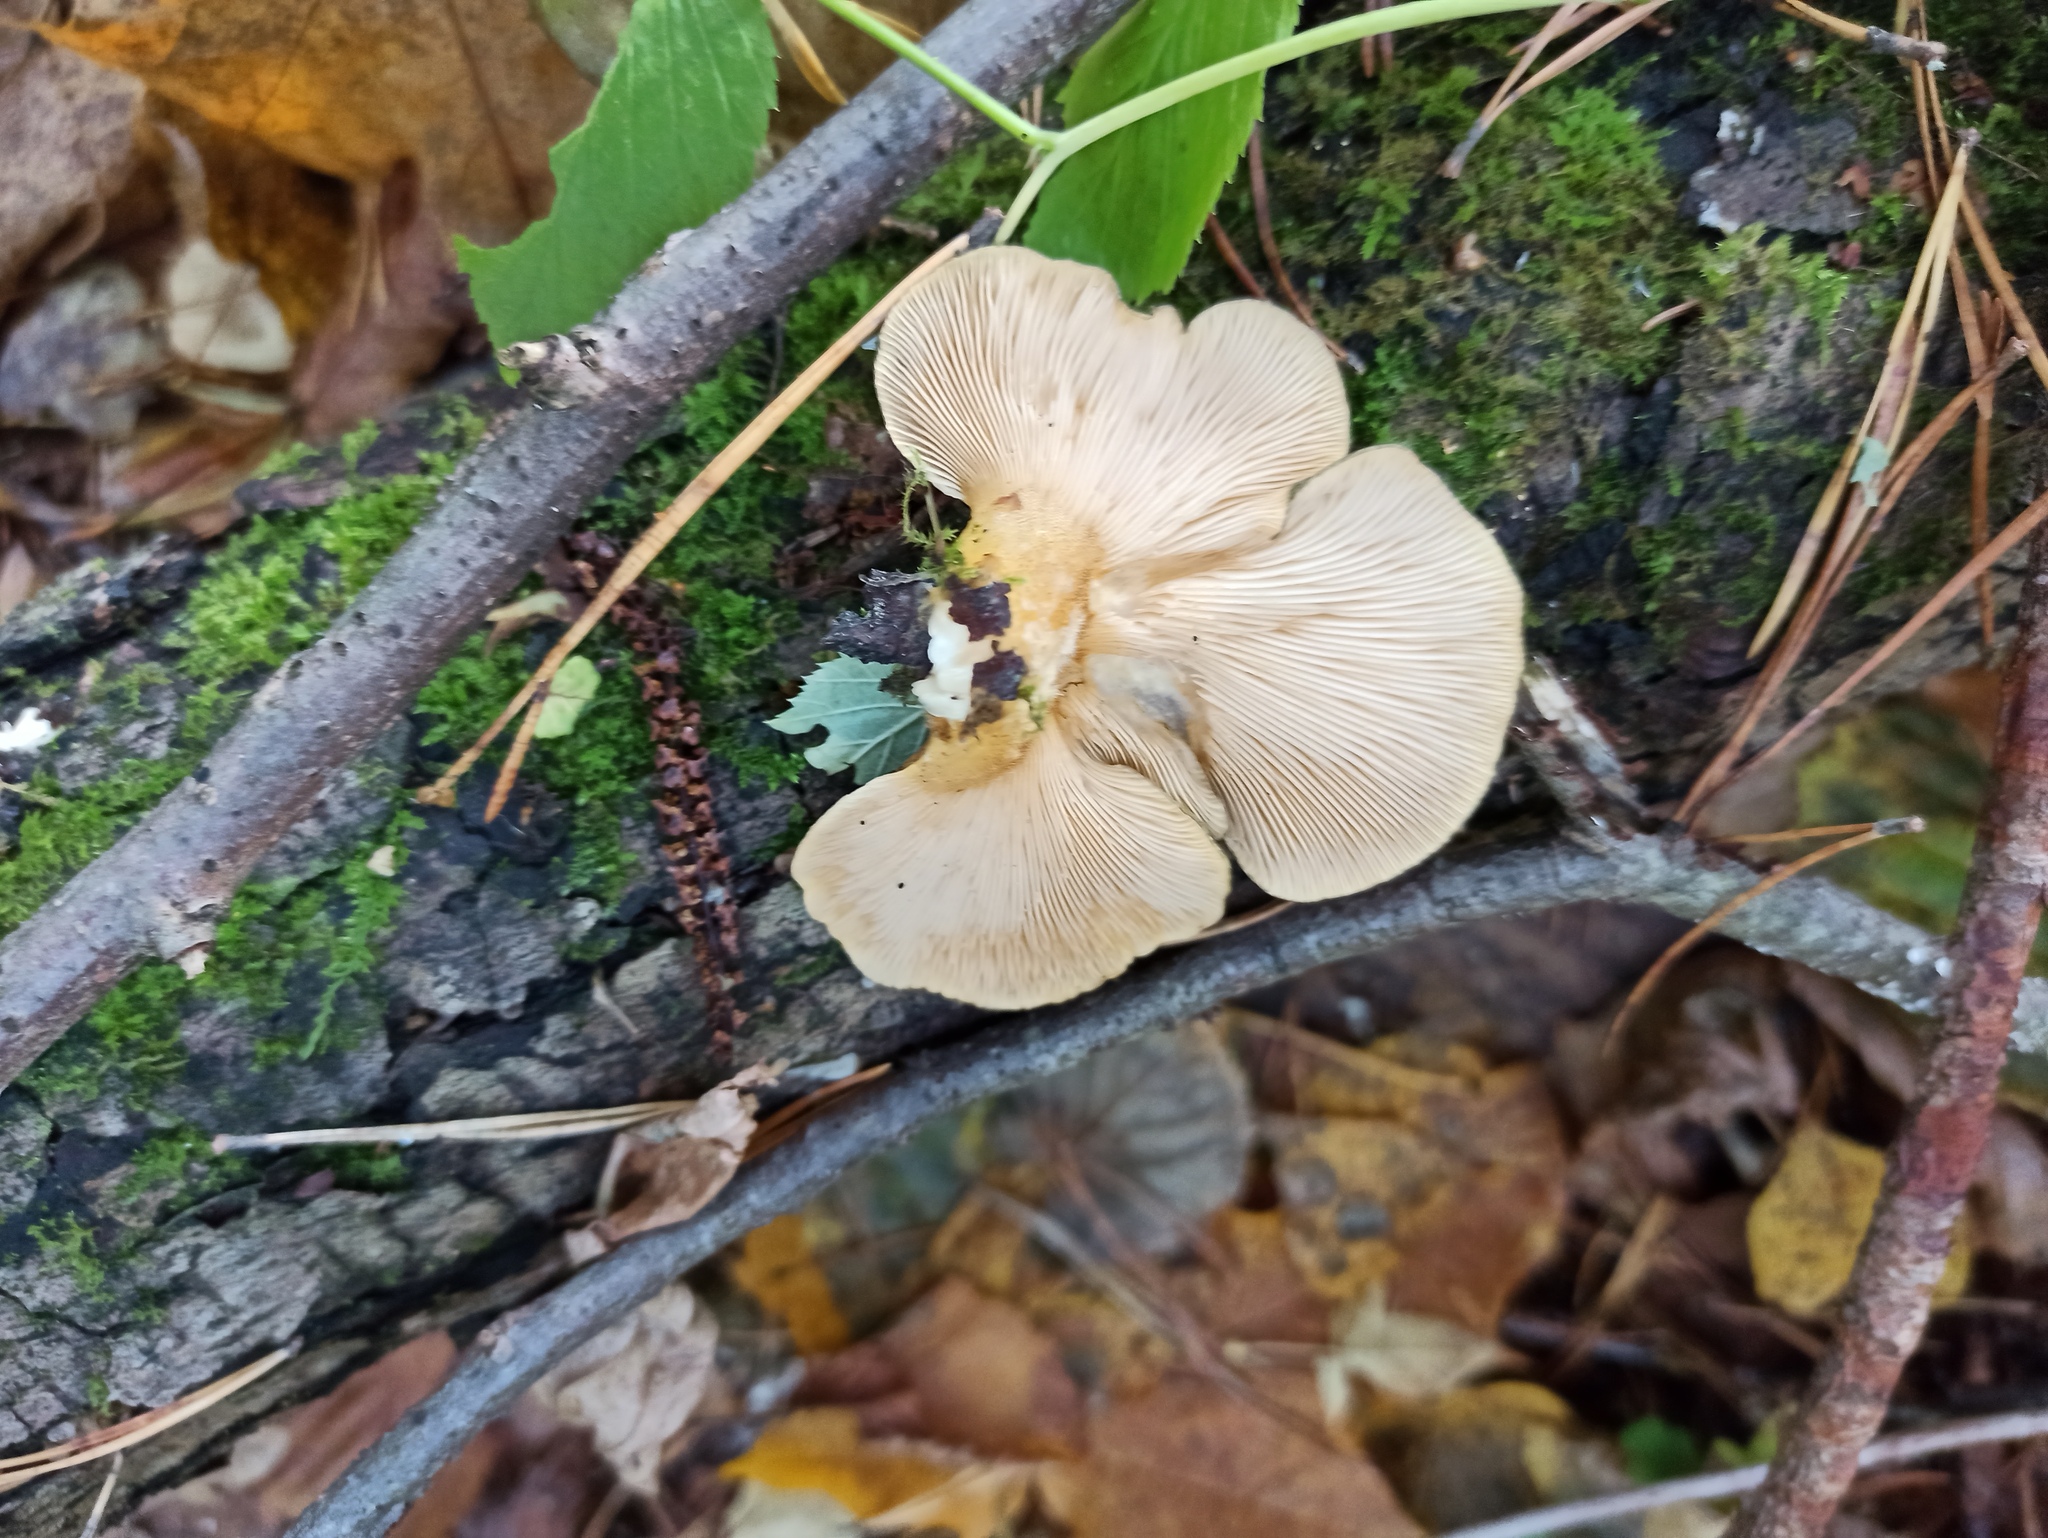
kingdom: Fungi
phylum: Basidiomycota
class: Agaricomycetes
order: Agaricales
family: Sarcomyxaceae
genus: Sarcomyxa
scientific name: Sarcomyxa serotina
